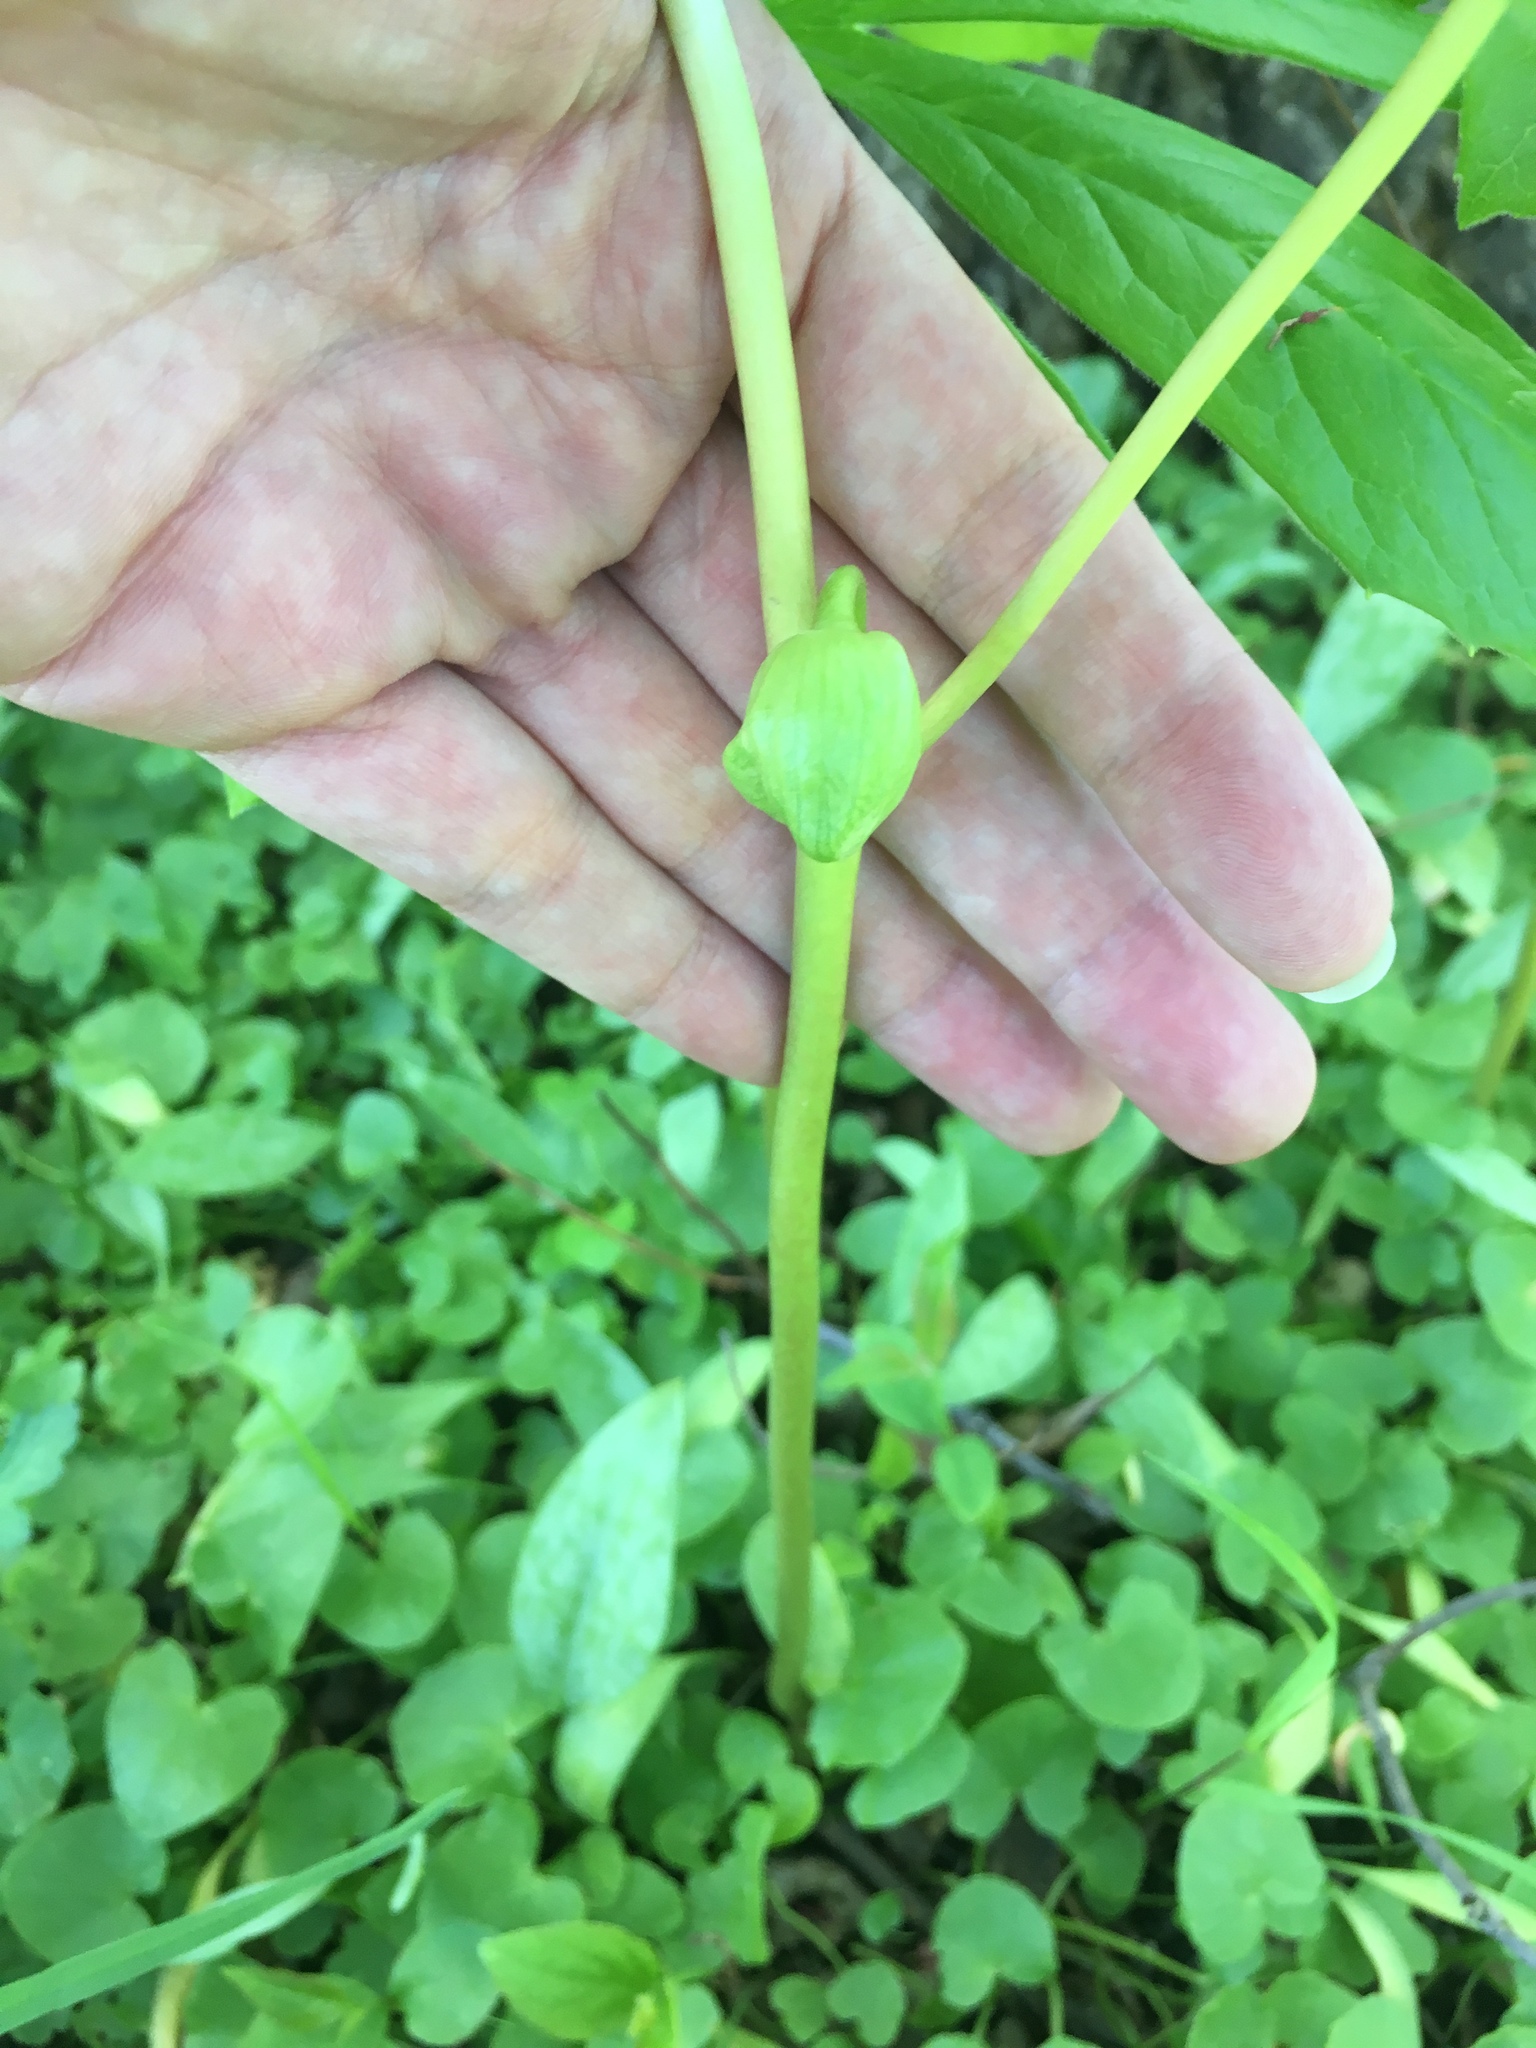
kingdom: Plantae
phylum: Tracheophyta
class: Magnoliopsida
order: Ranunculales
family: Berberidaceae
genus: Podophyllum
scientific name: Podophyllum peltatum
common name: Wild mandrake
